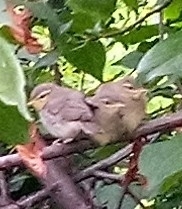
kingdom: Animalia
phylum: Chordata
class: Aves
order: Passeriformes
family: Phylloscopidae
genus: Phylloscopus
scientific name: Phylloscopus trochilus
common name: Willow warbler
